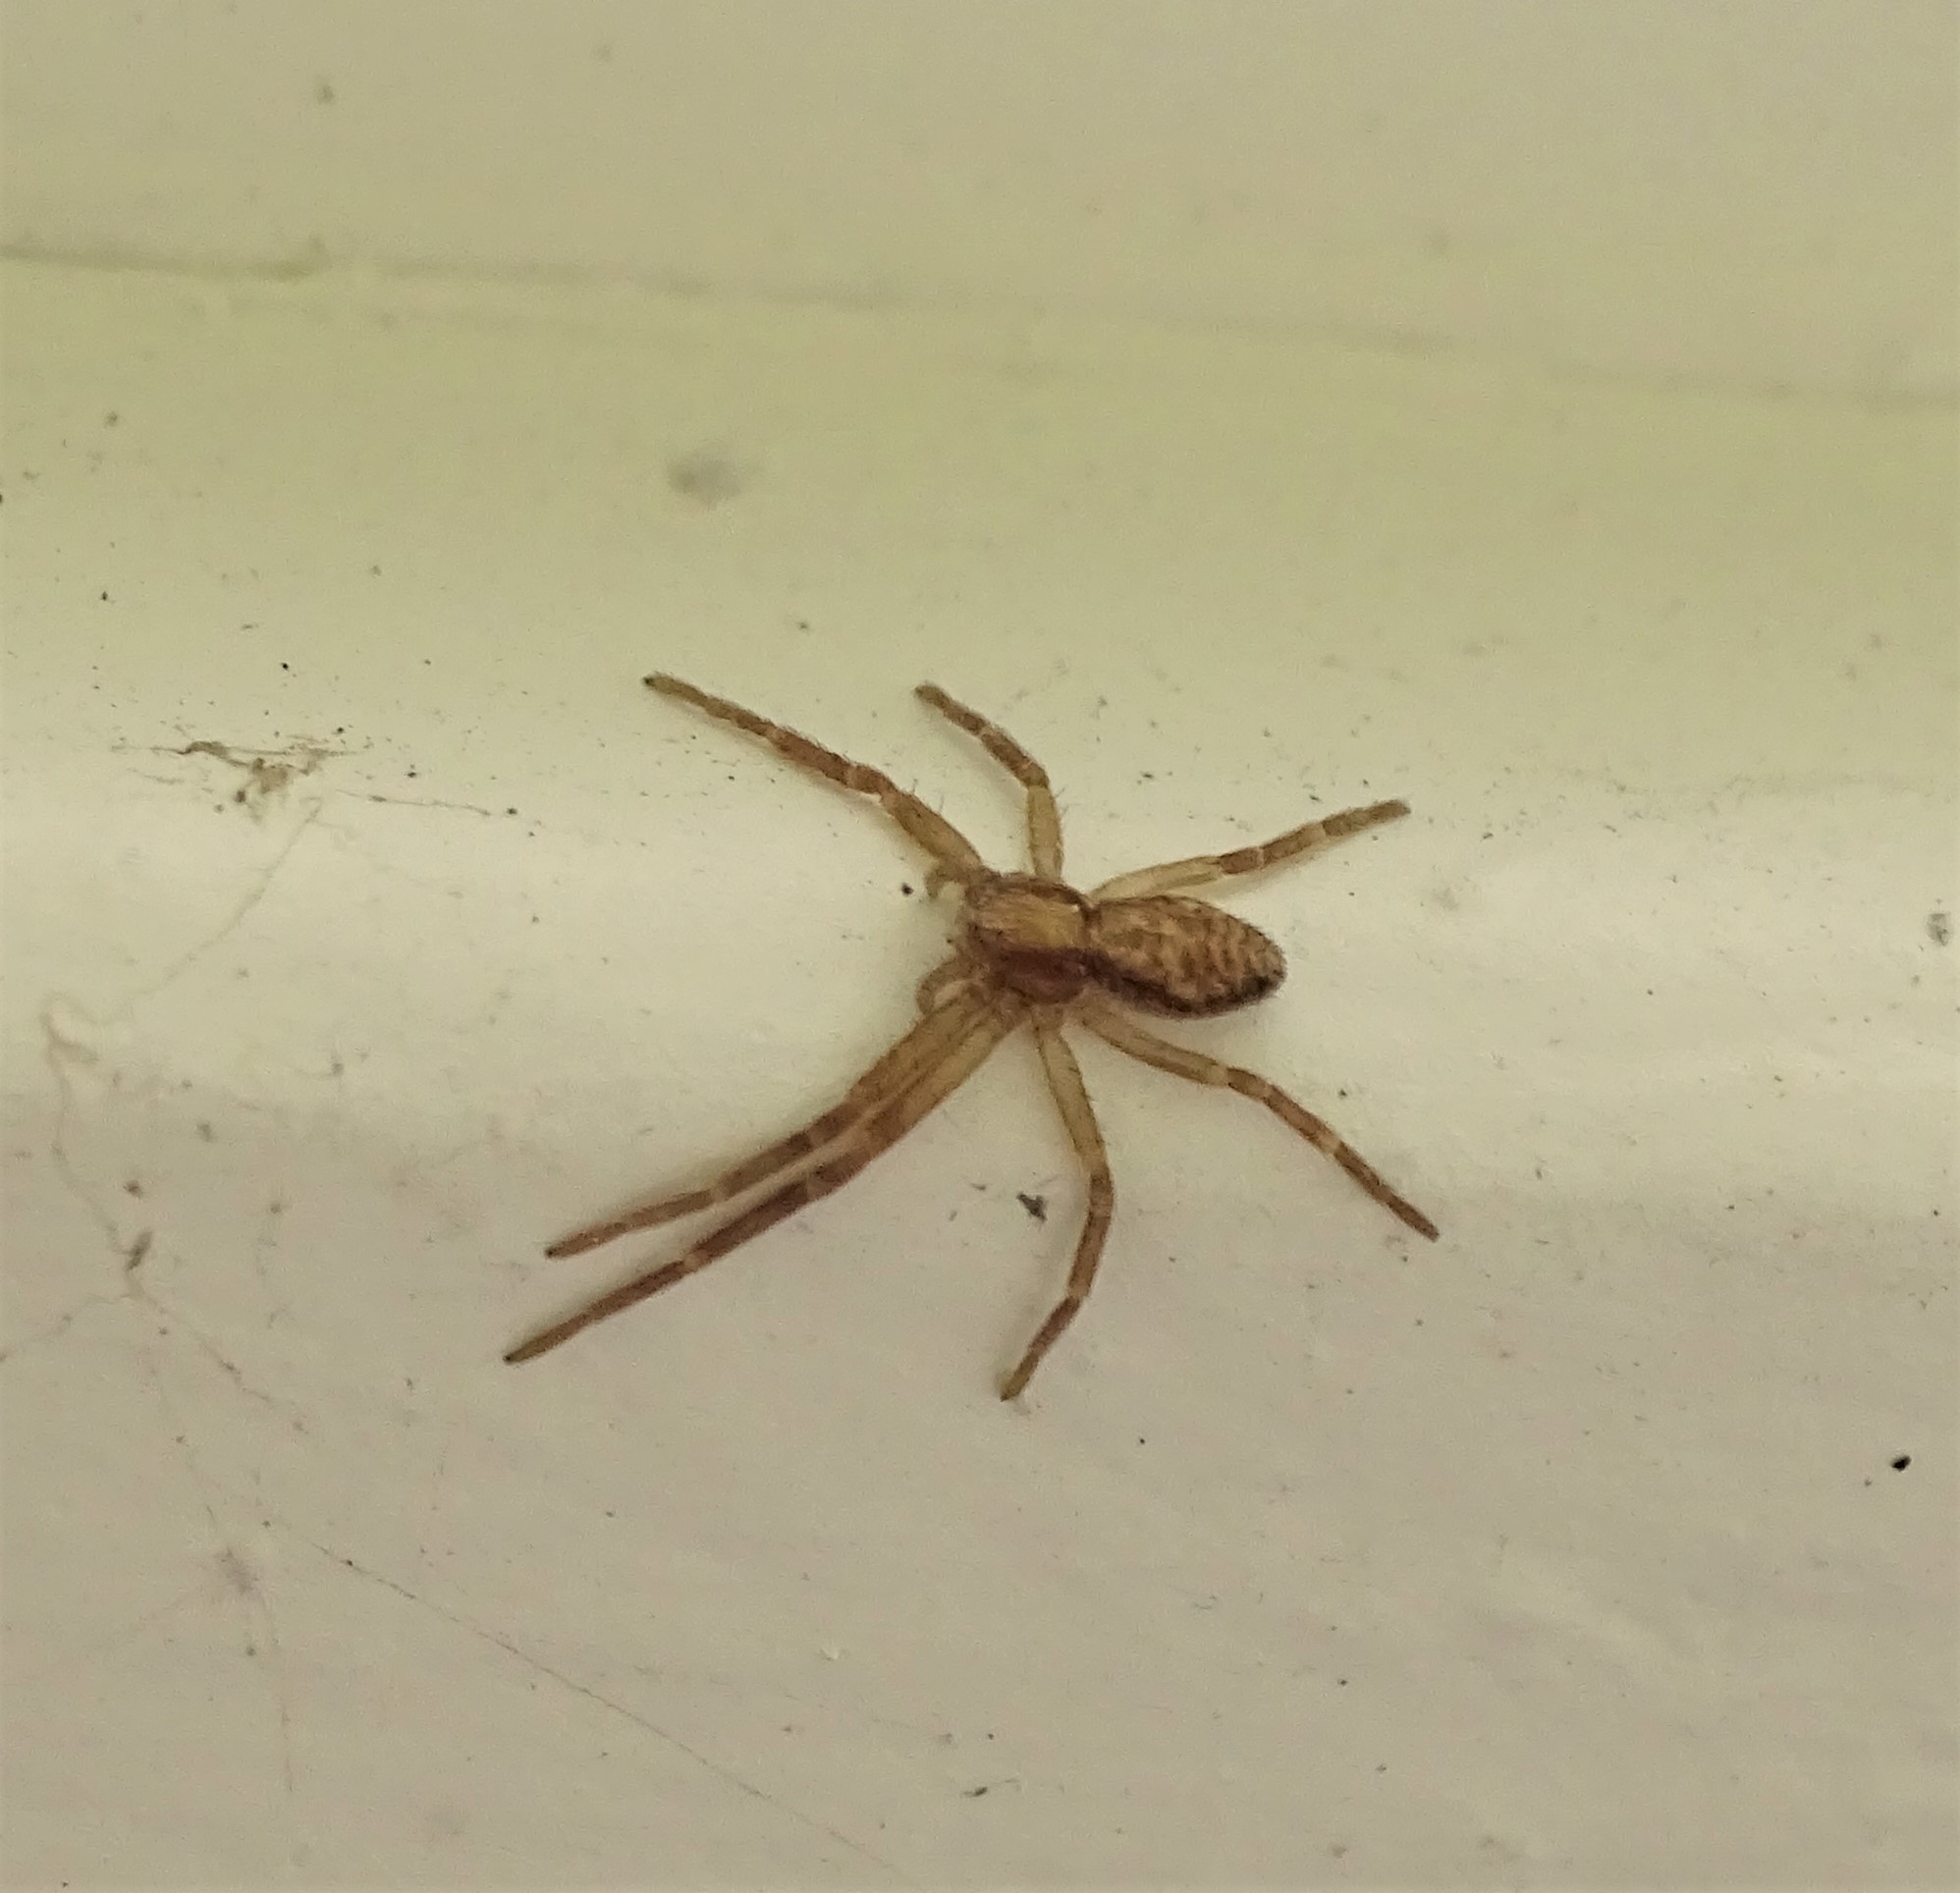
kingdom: Animalia
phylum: Arthropoda
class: Arachnida
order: Araneae
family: Philodromidae
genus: Philodromus
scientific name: Philodromus
